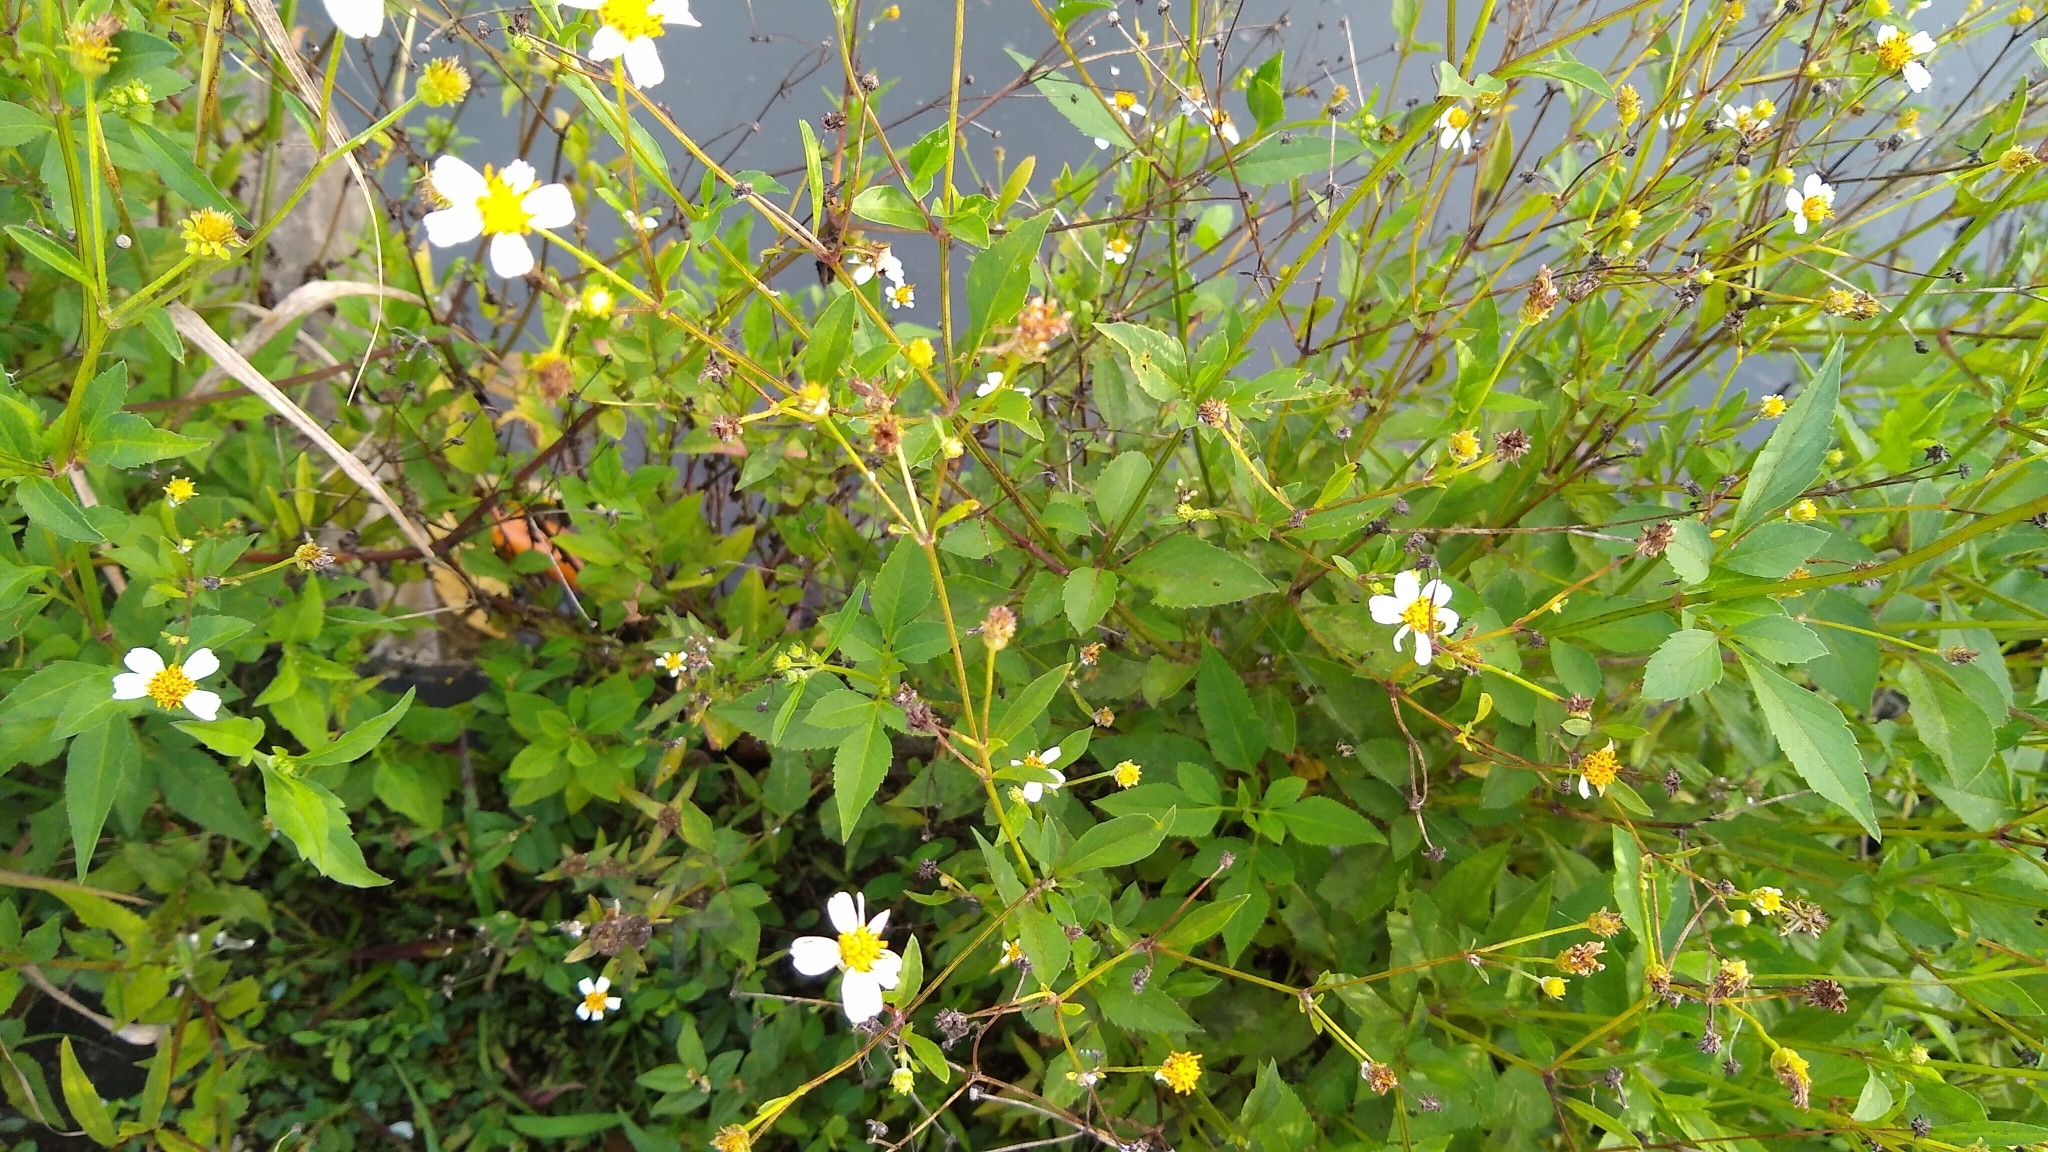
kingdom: Plantae
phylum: Tracheophyta
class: Magnoliopsida
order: Asterales
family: Asteraceae
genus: Bidens
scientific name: Bidens alba
